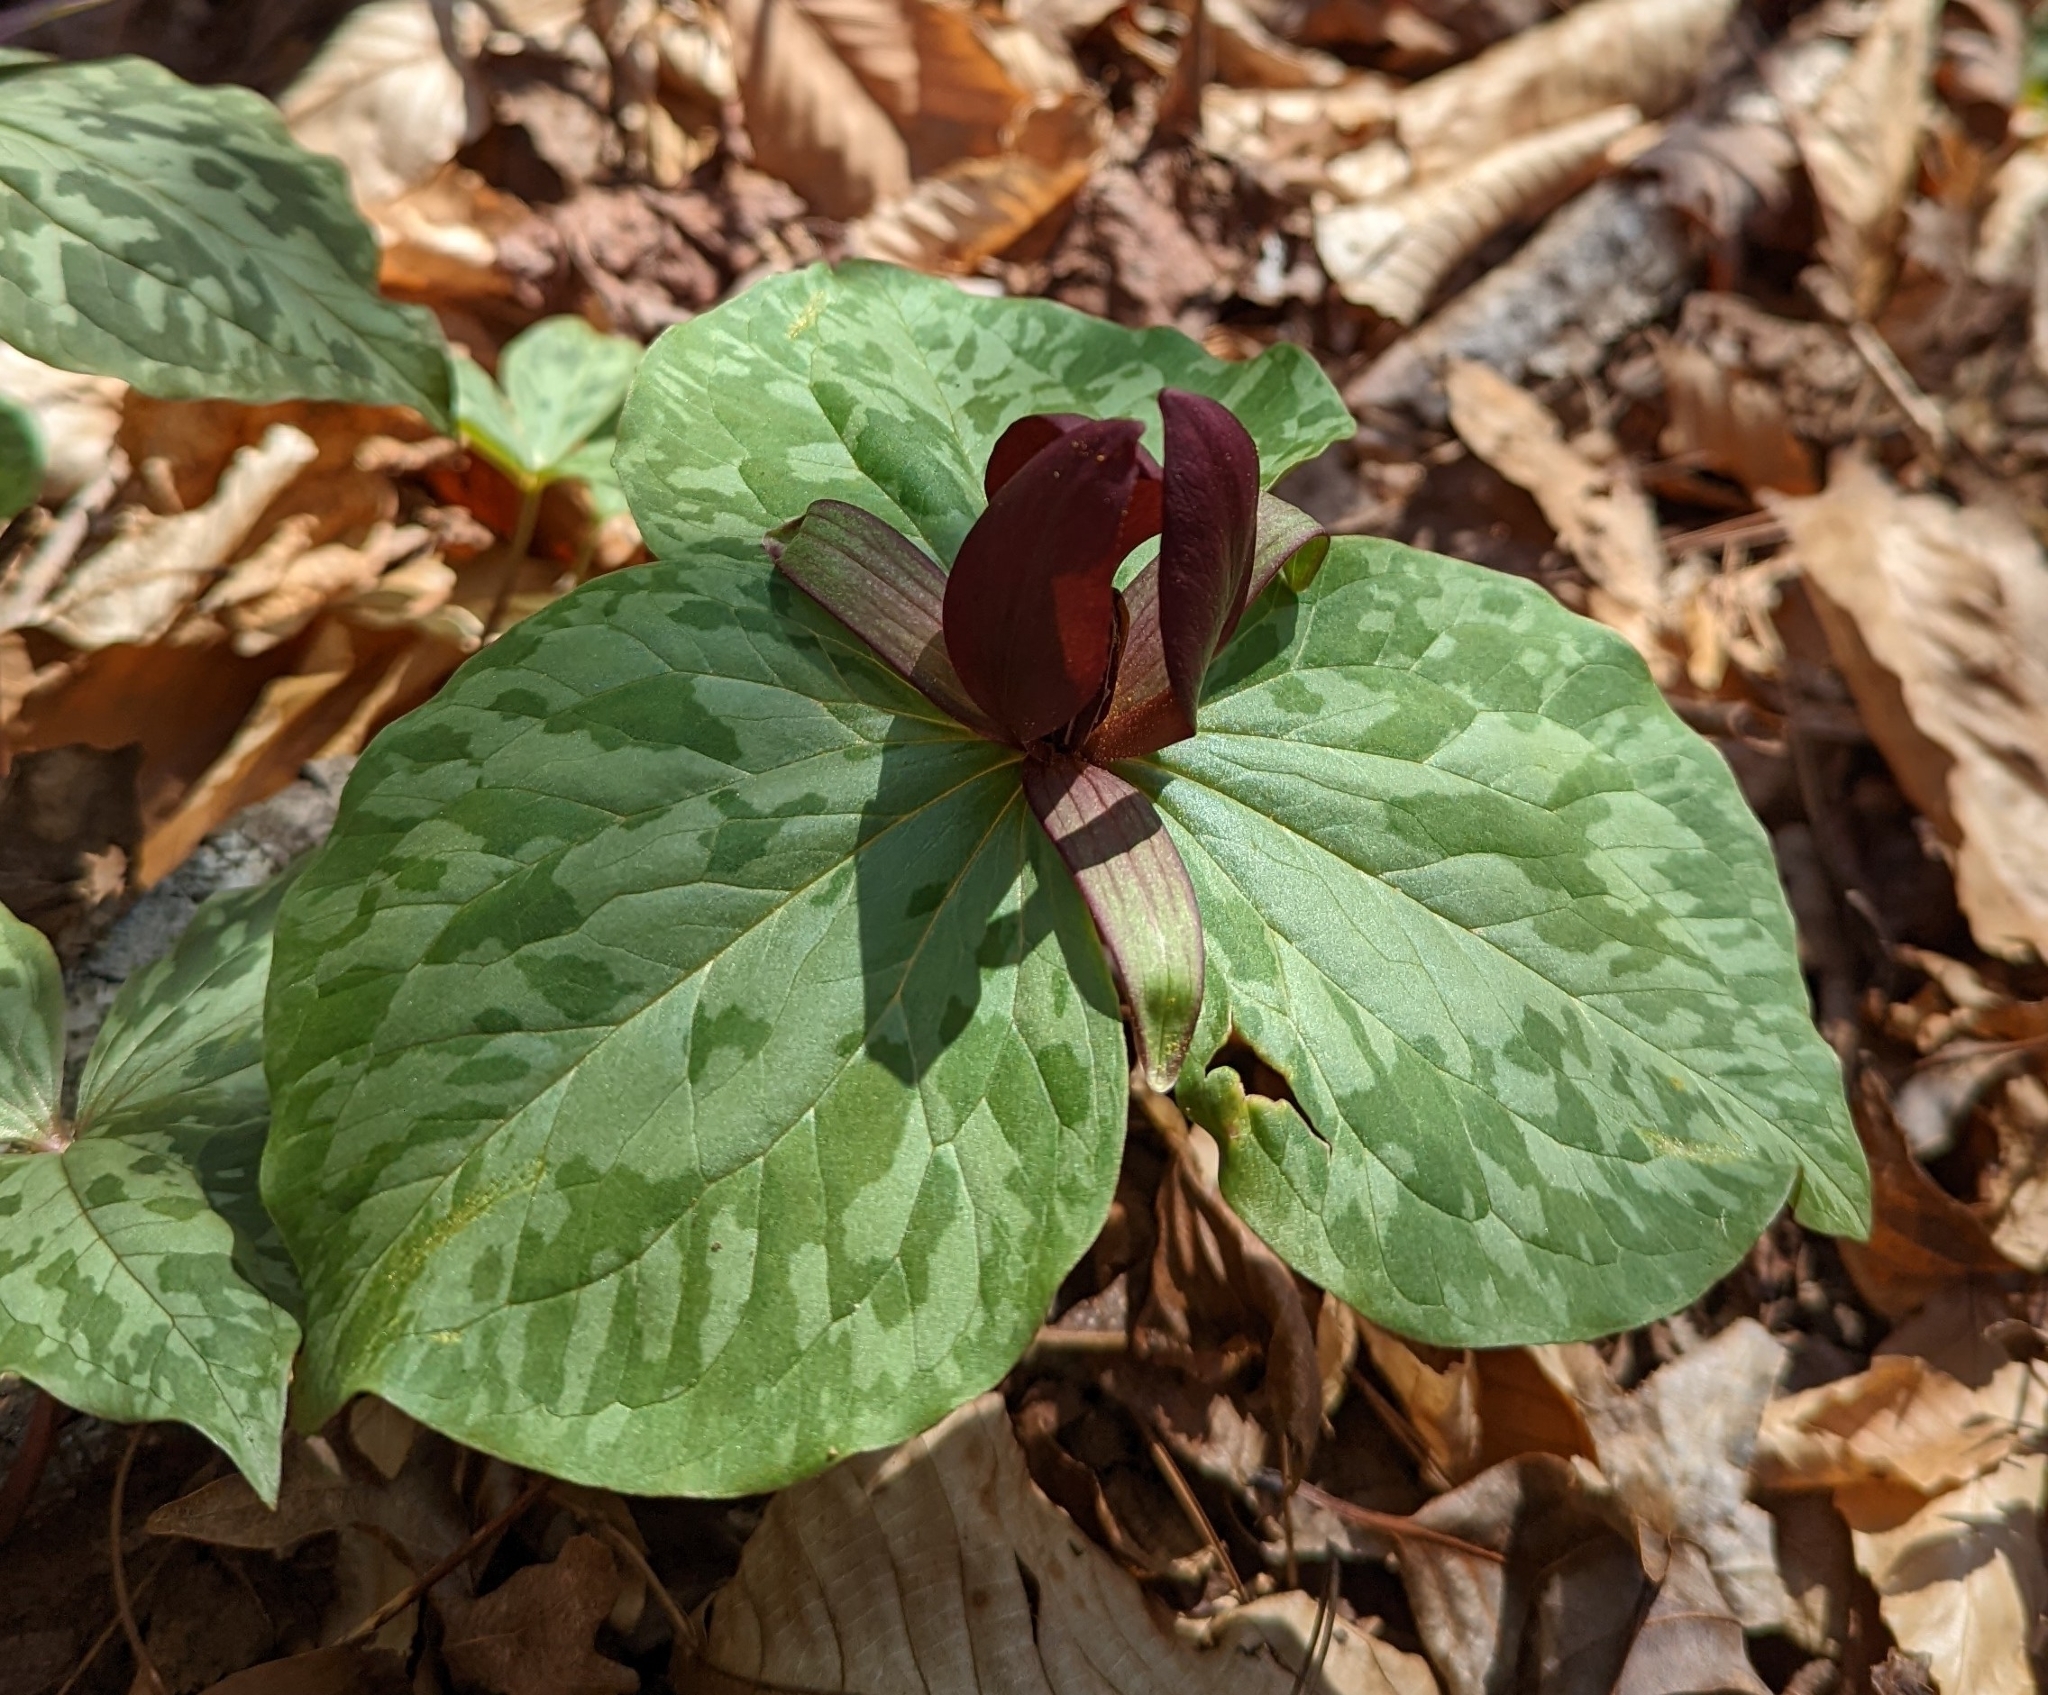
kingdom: Plantae
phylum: Tracheophyta
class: Liliopsida
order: Liliales
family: Melanthiaceae
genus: Trillium
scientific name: Trillium cuneatum
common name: Cuneate trillium
